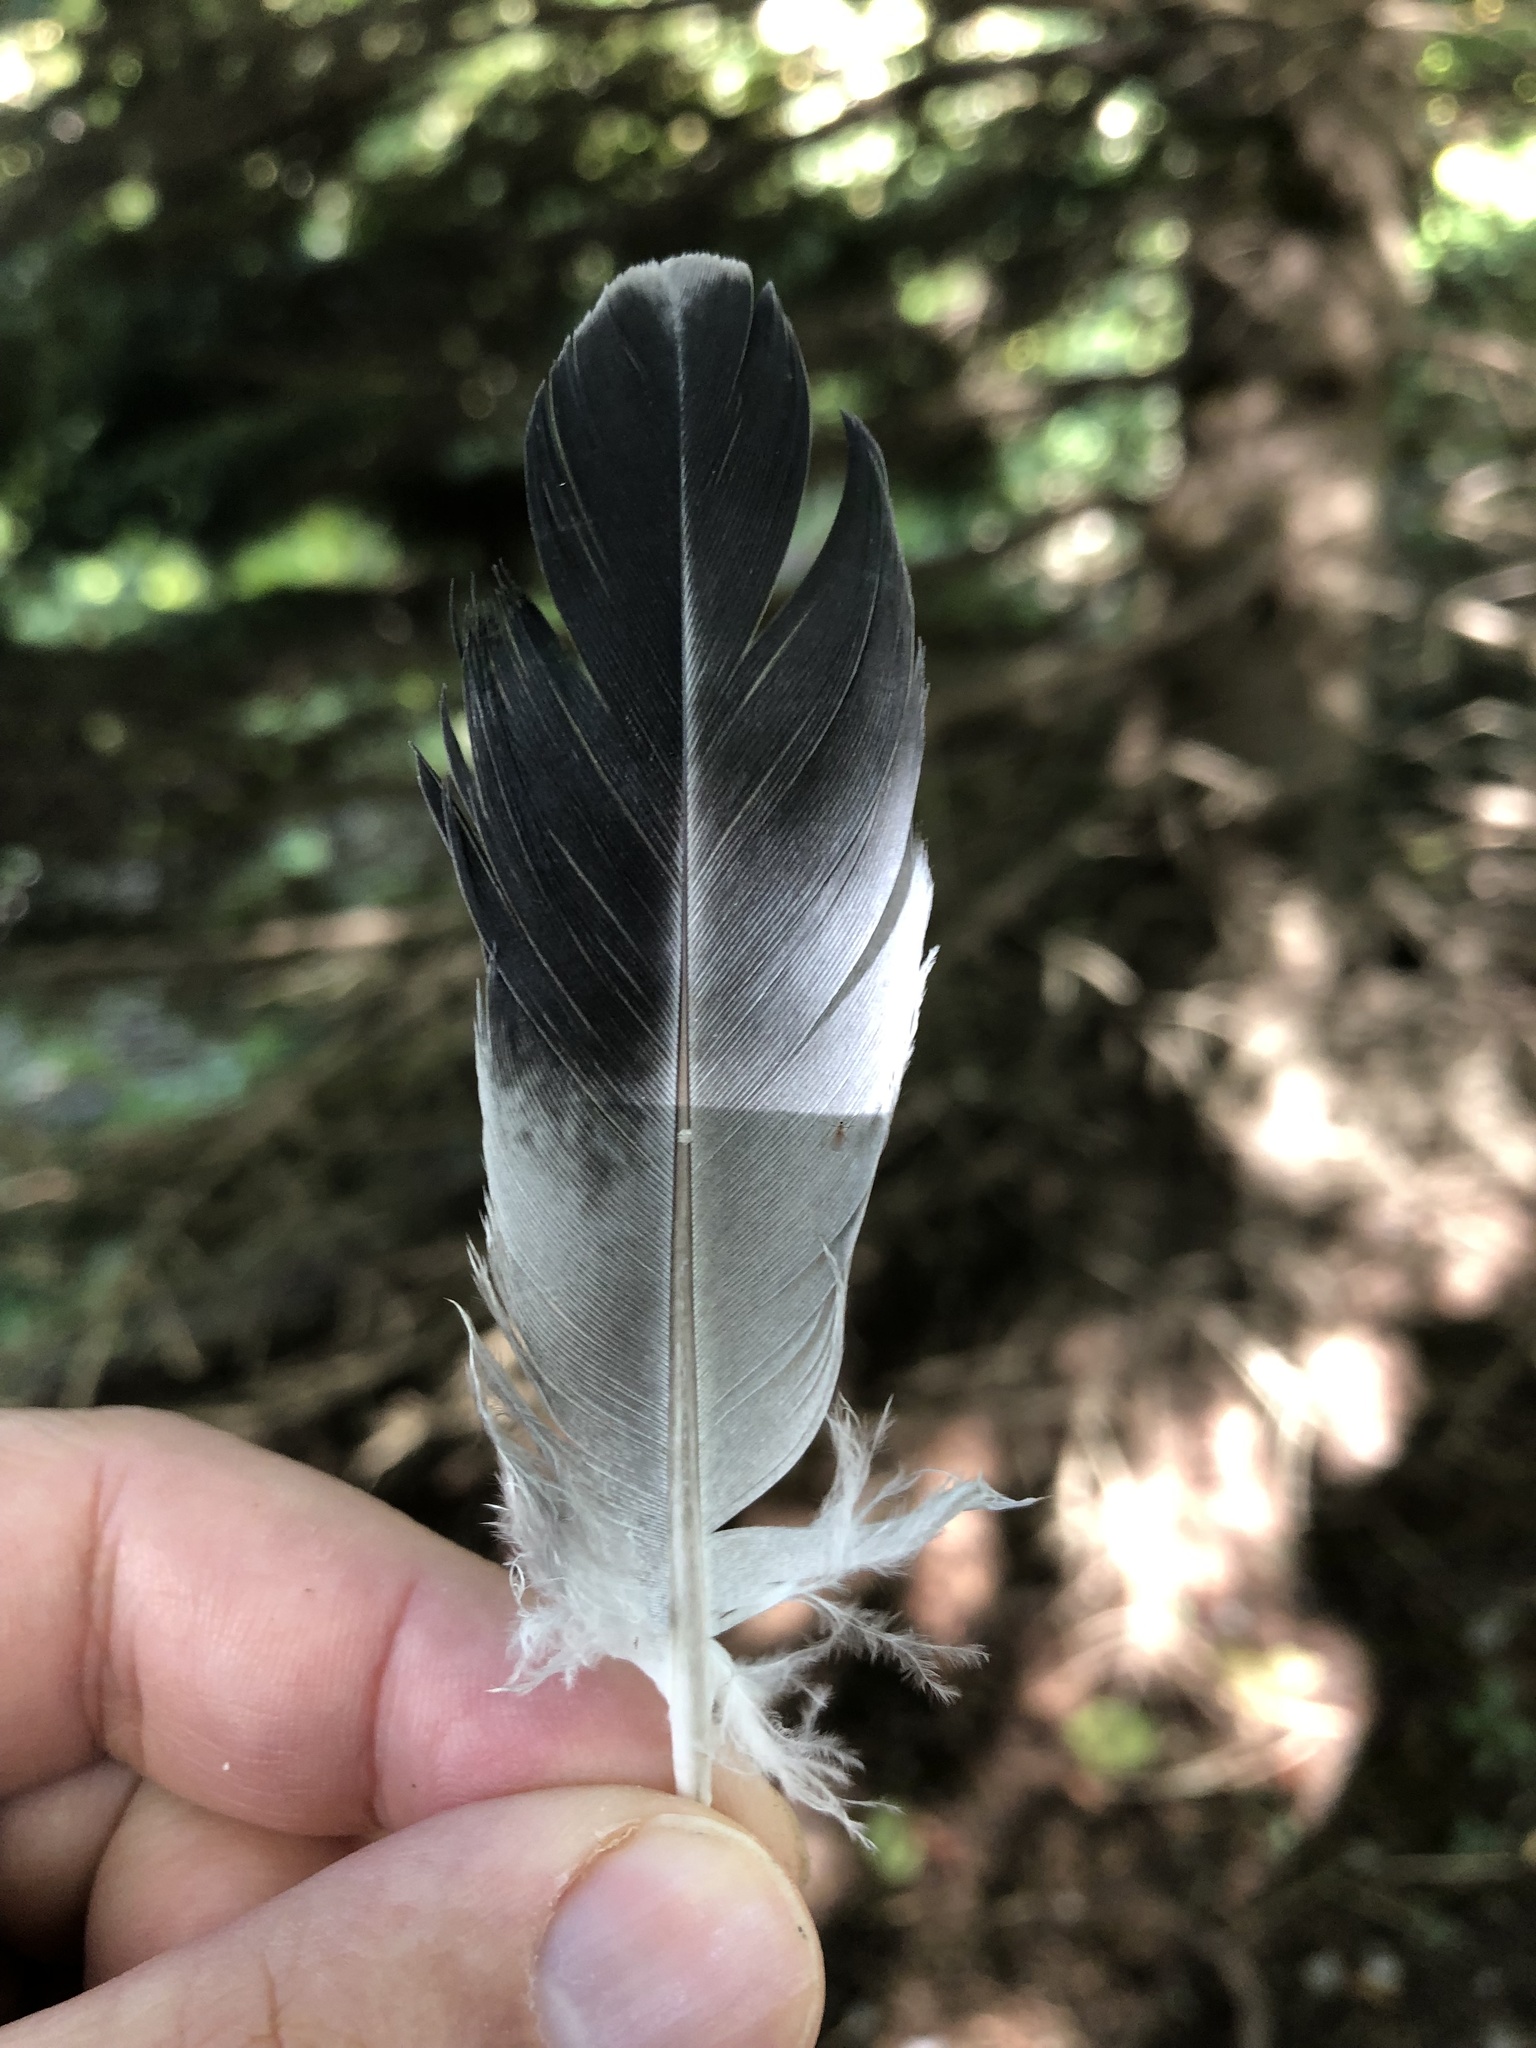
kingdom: Animalia
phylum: Chordata
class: Aves
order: Columbiformes
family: Columbidae
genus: Columba
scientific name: Columba livia
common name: Rock pigeon
